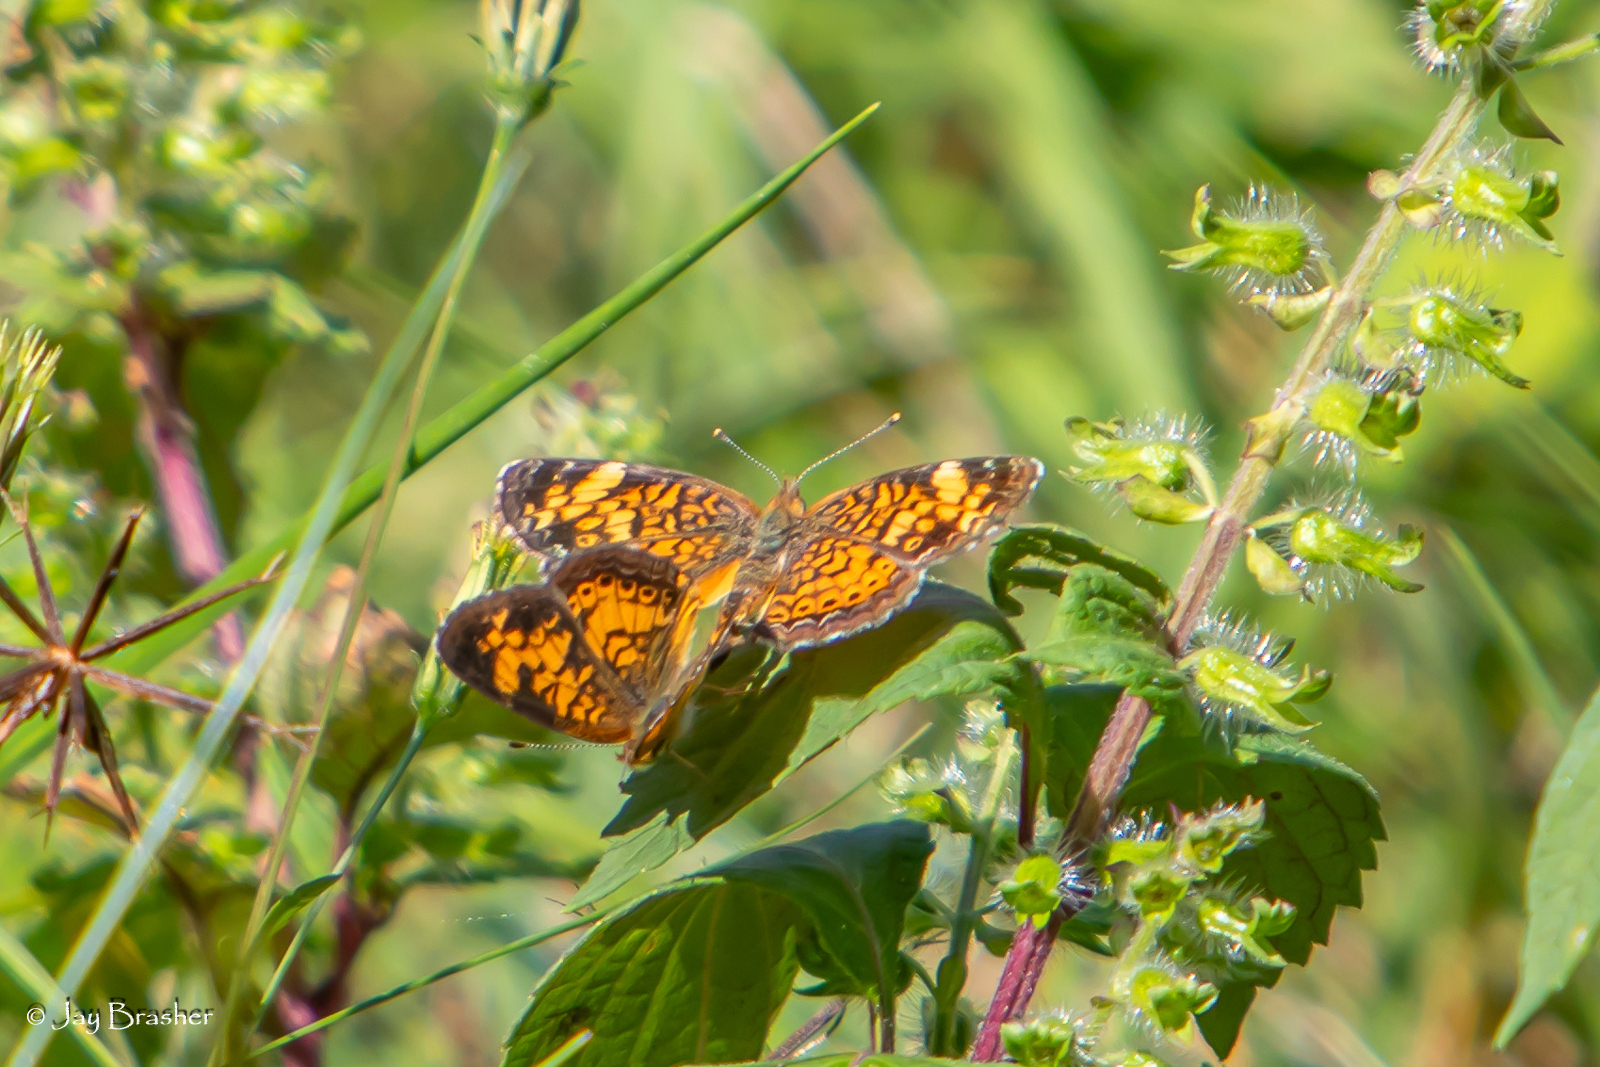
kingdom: Animalia
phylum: Arthropoda
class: Insecta
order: Lepidoptera
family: Nymphalidae
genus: Phyciodes
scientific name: Phyciodes tharos
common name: Pearl crescent
